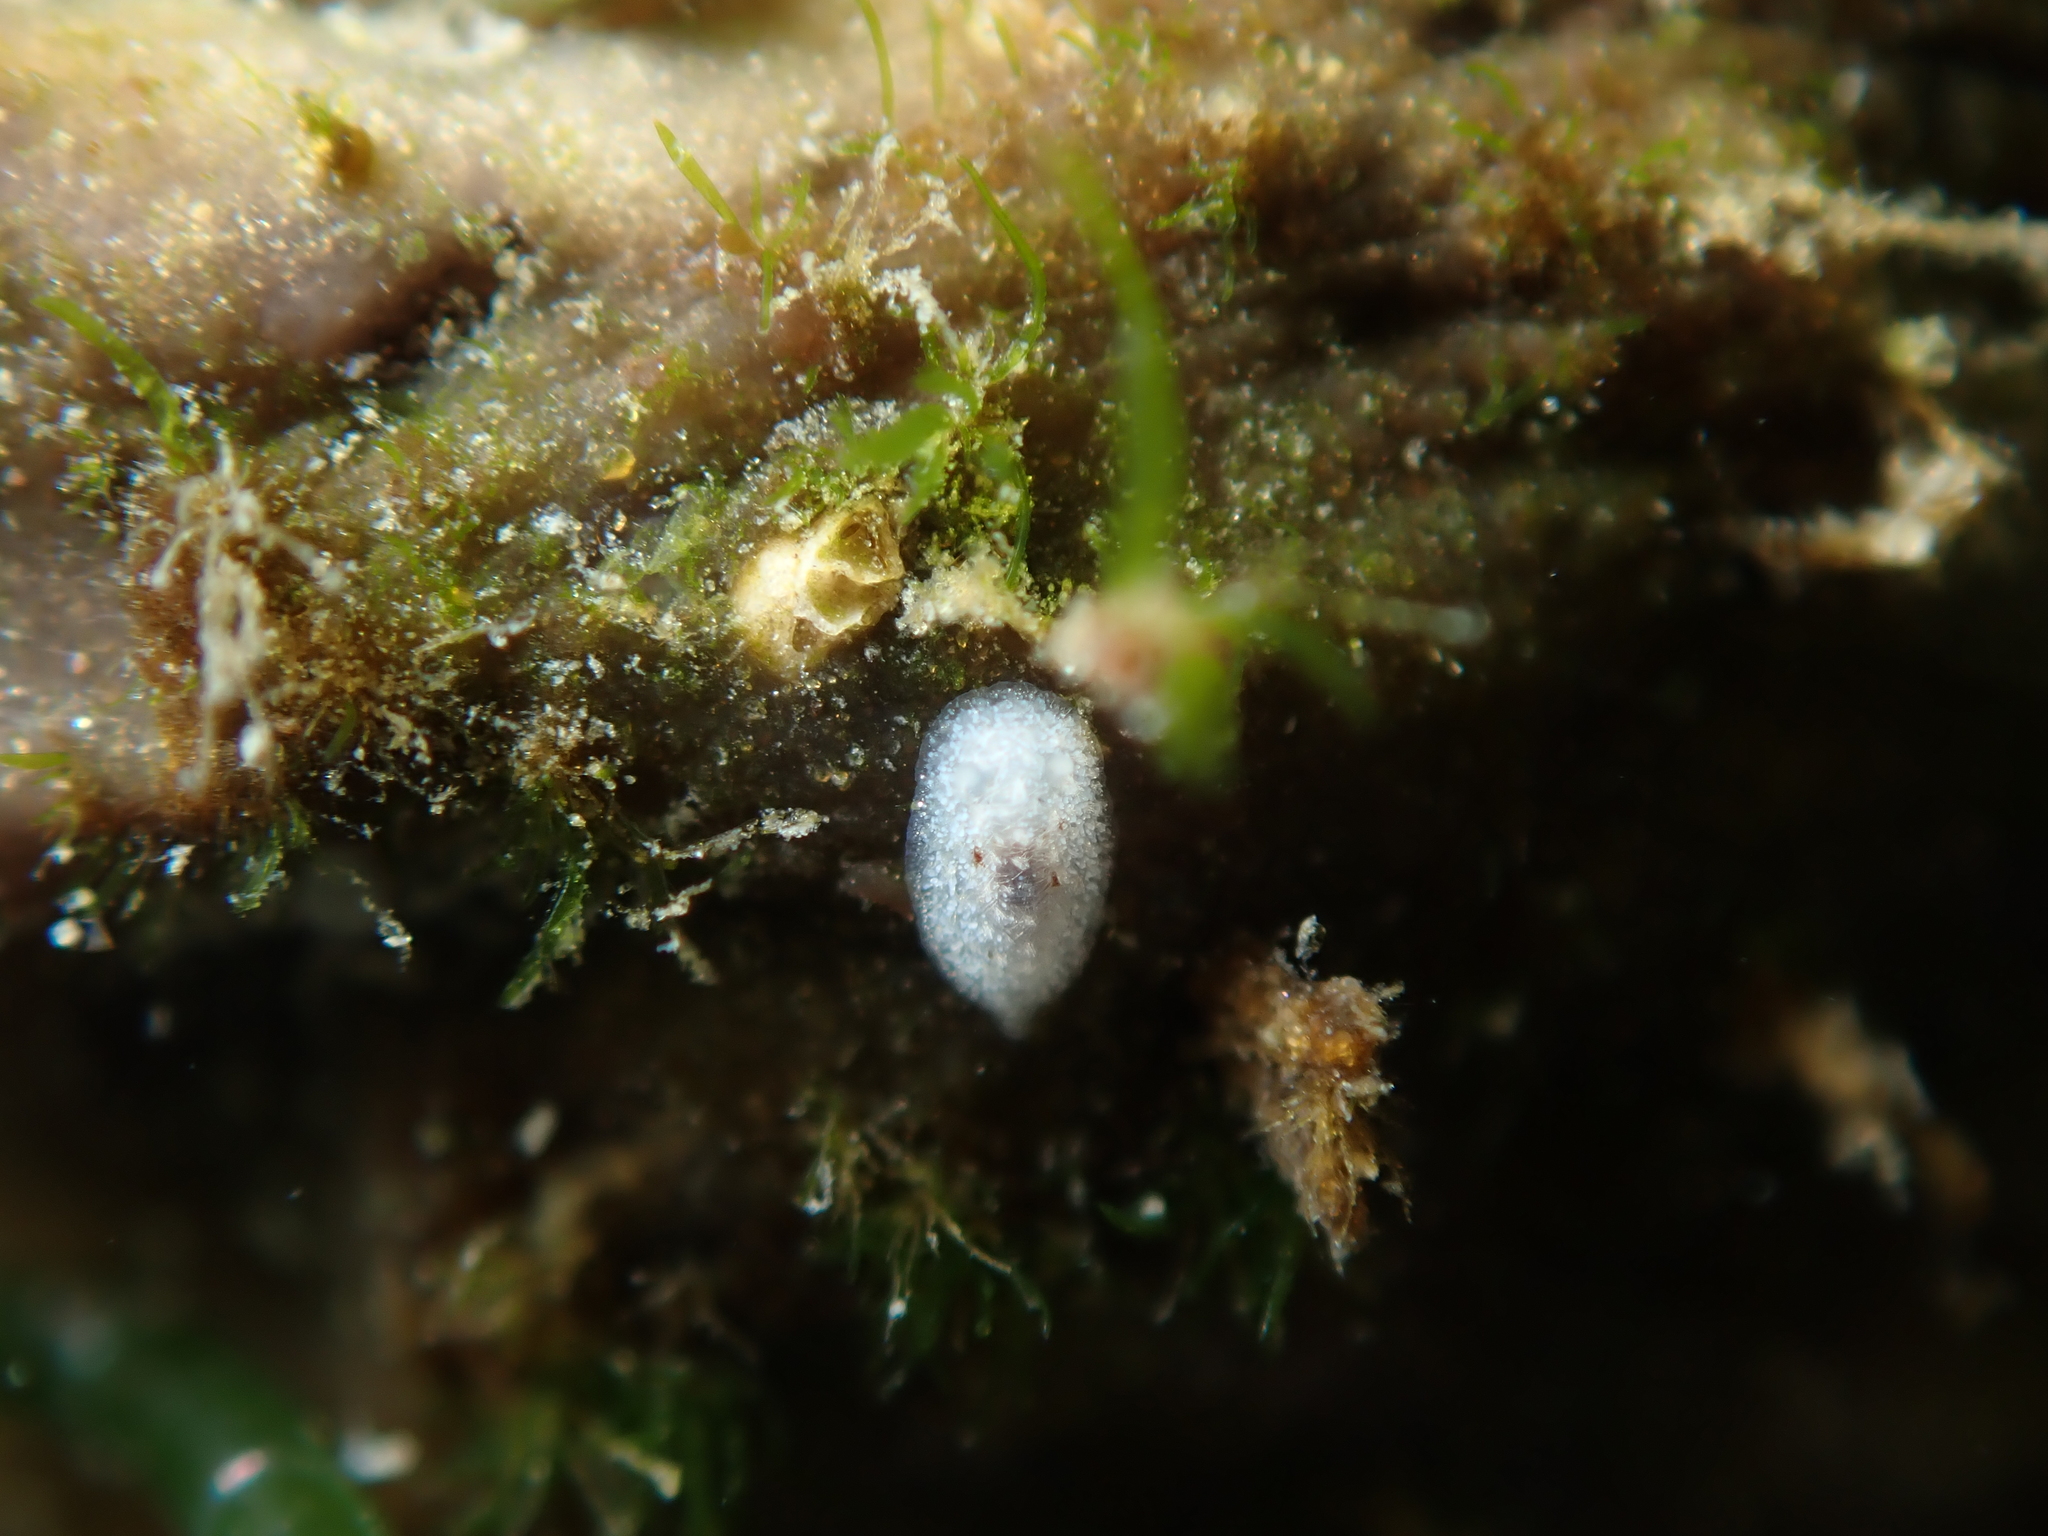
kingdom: Animalia
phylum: Mollusca
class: Gastropoda
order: Nudibranchia
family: Discodorididae
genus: Paradoris
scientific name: Paradoris dubia
